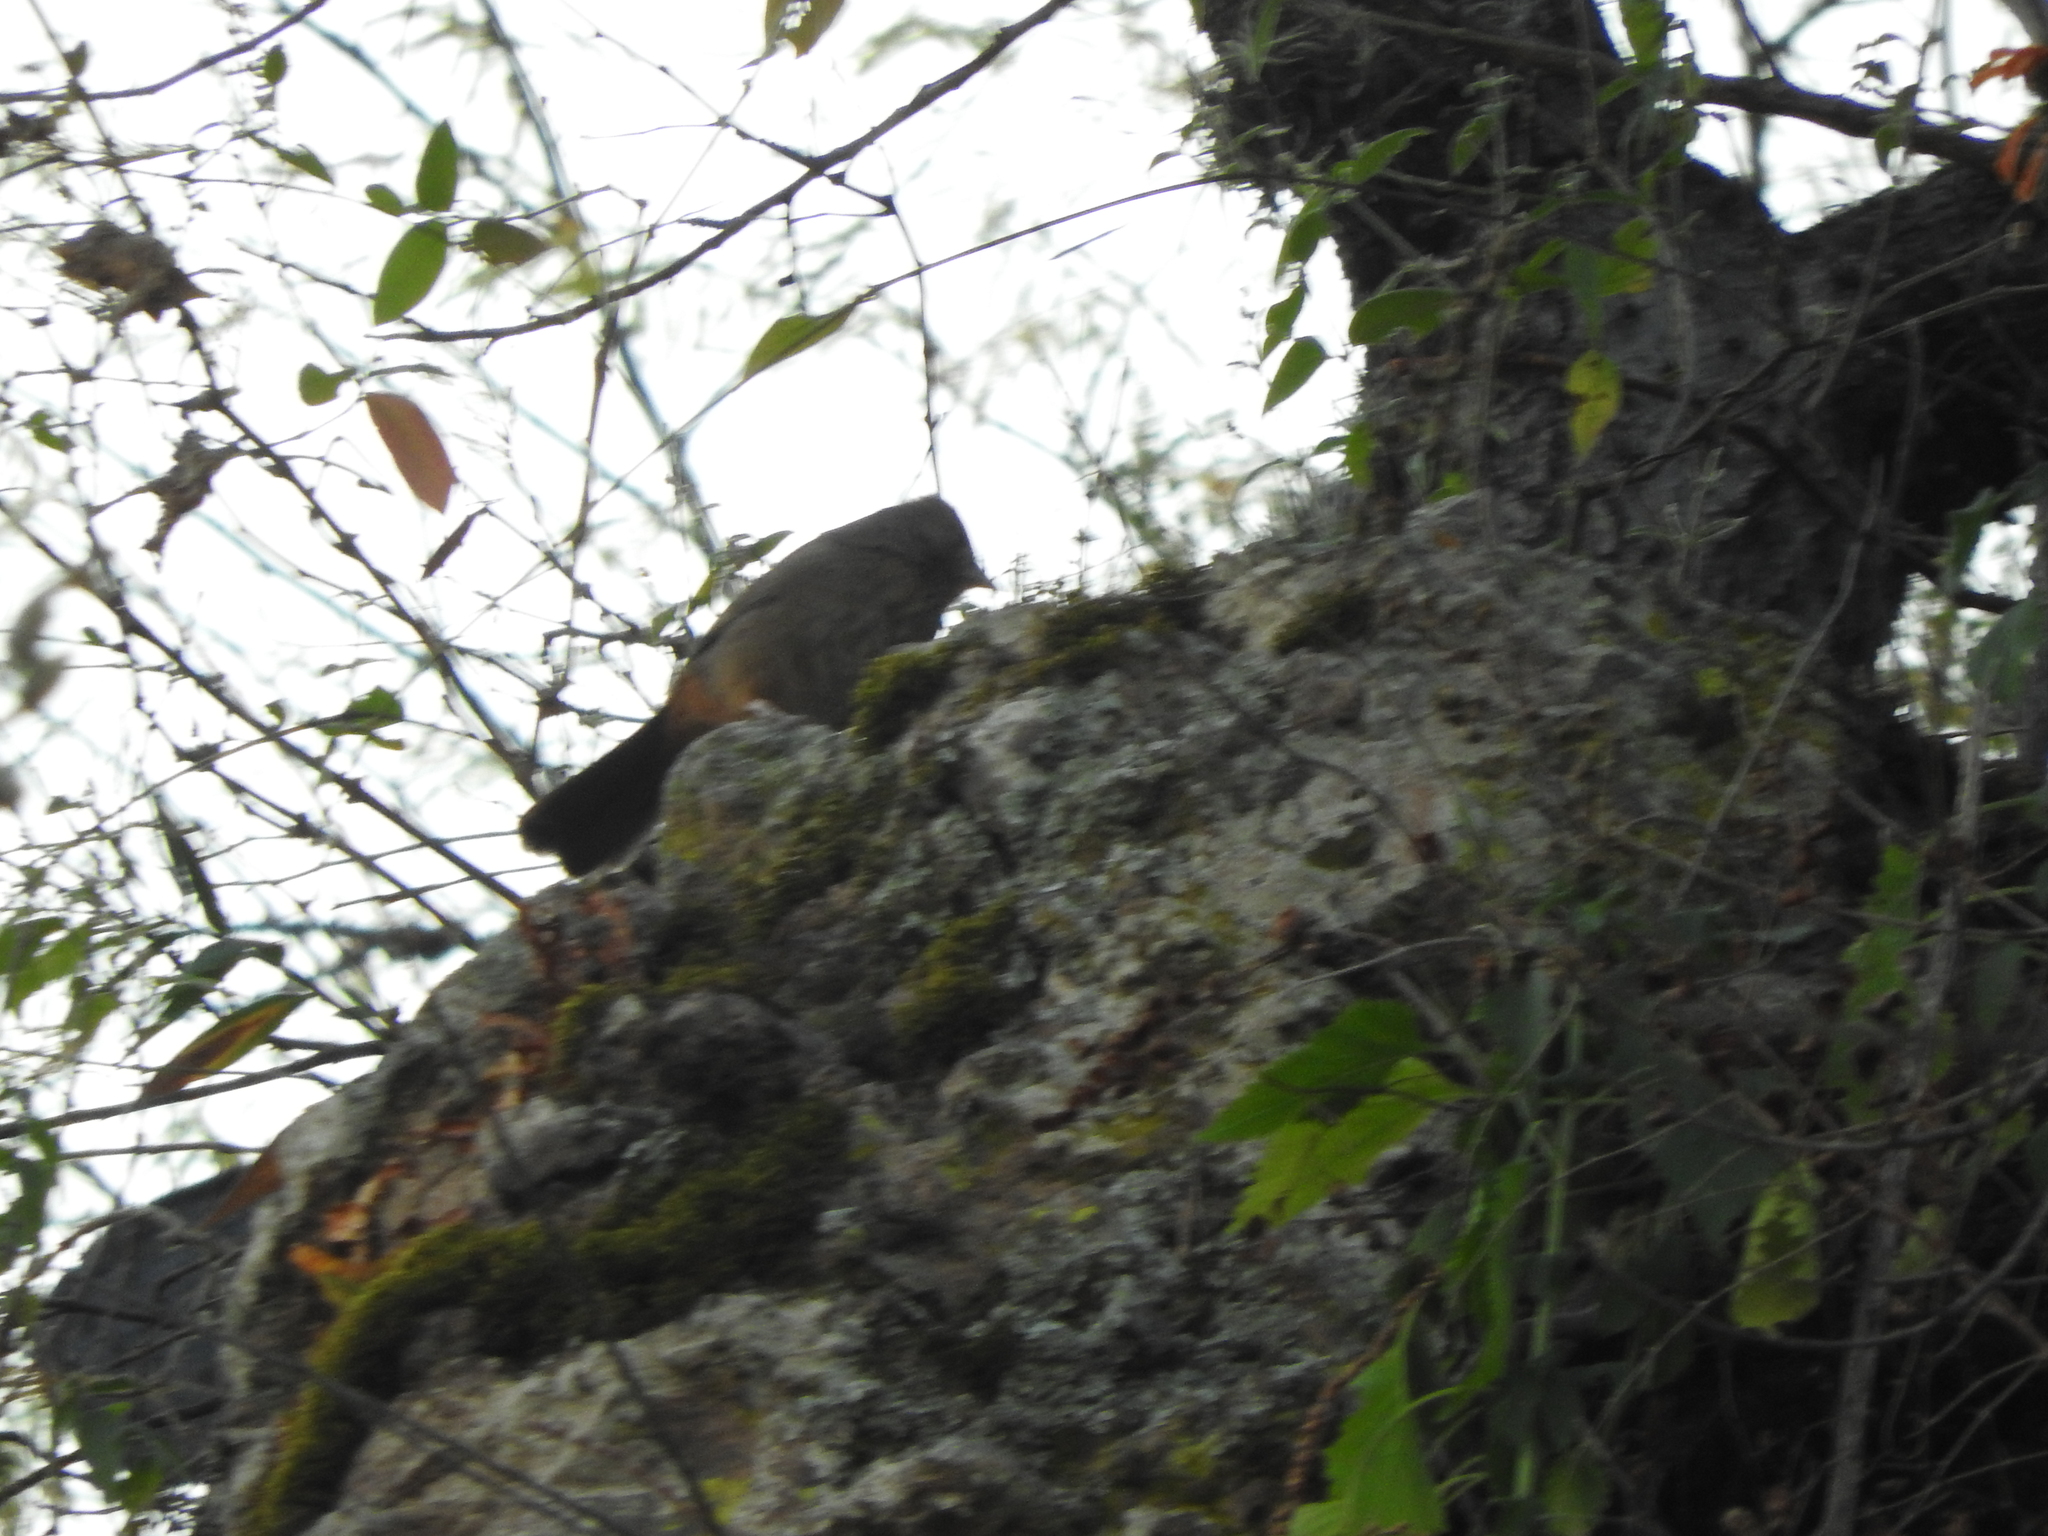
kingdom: Animalia
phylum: Chordata
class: Aves
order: Passeriformes
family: Passerellidae
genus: Melozone
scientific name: Melozone fusca
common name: Canyon towhee
